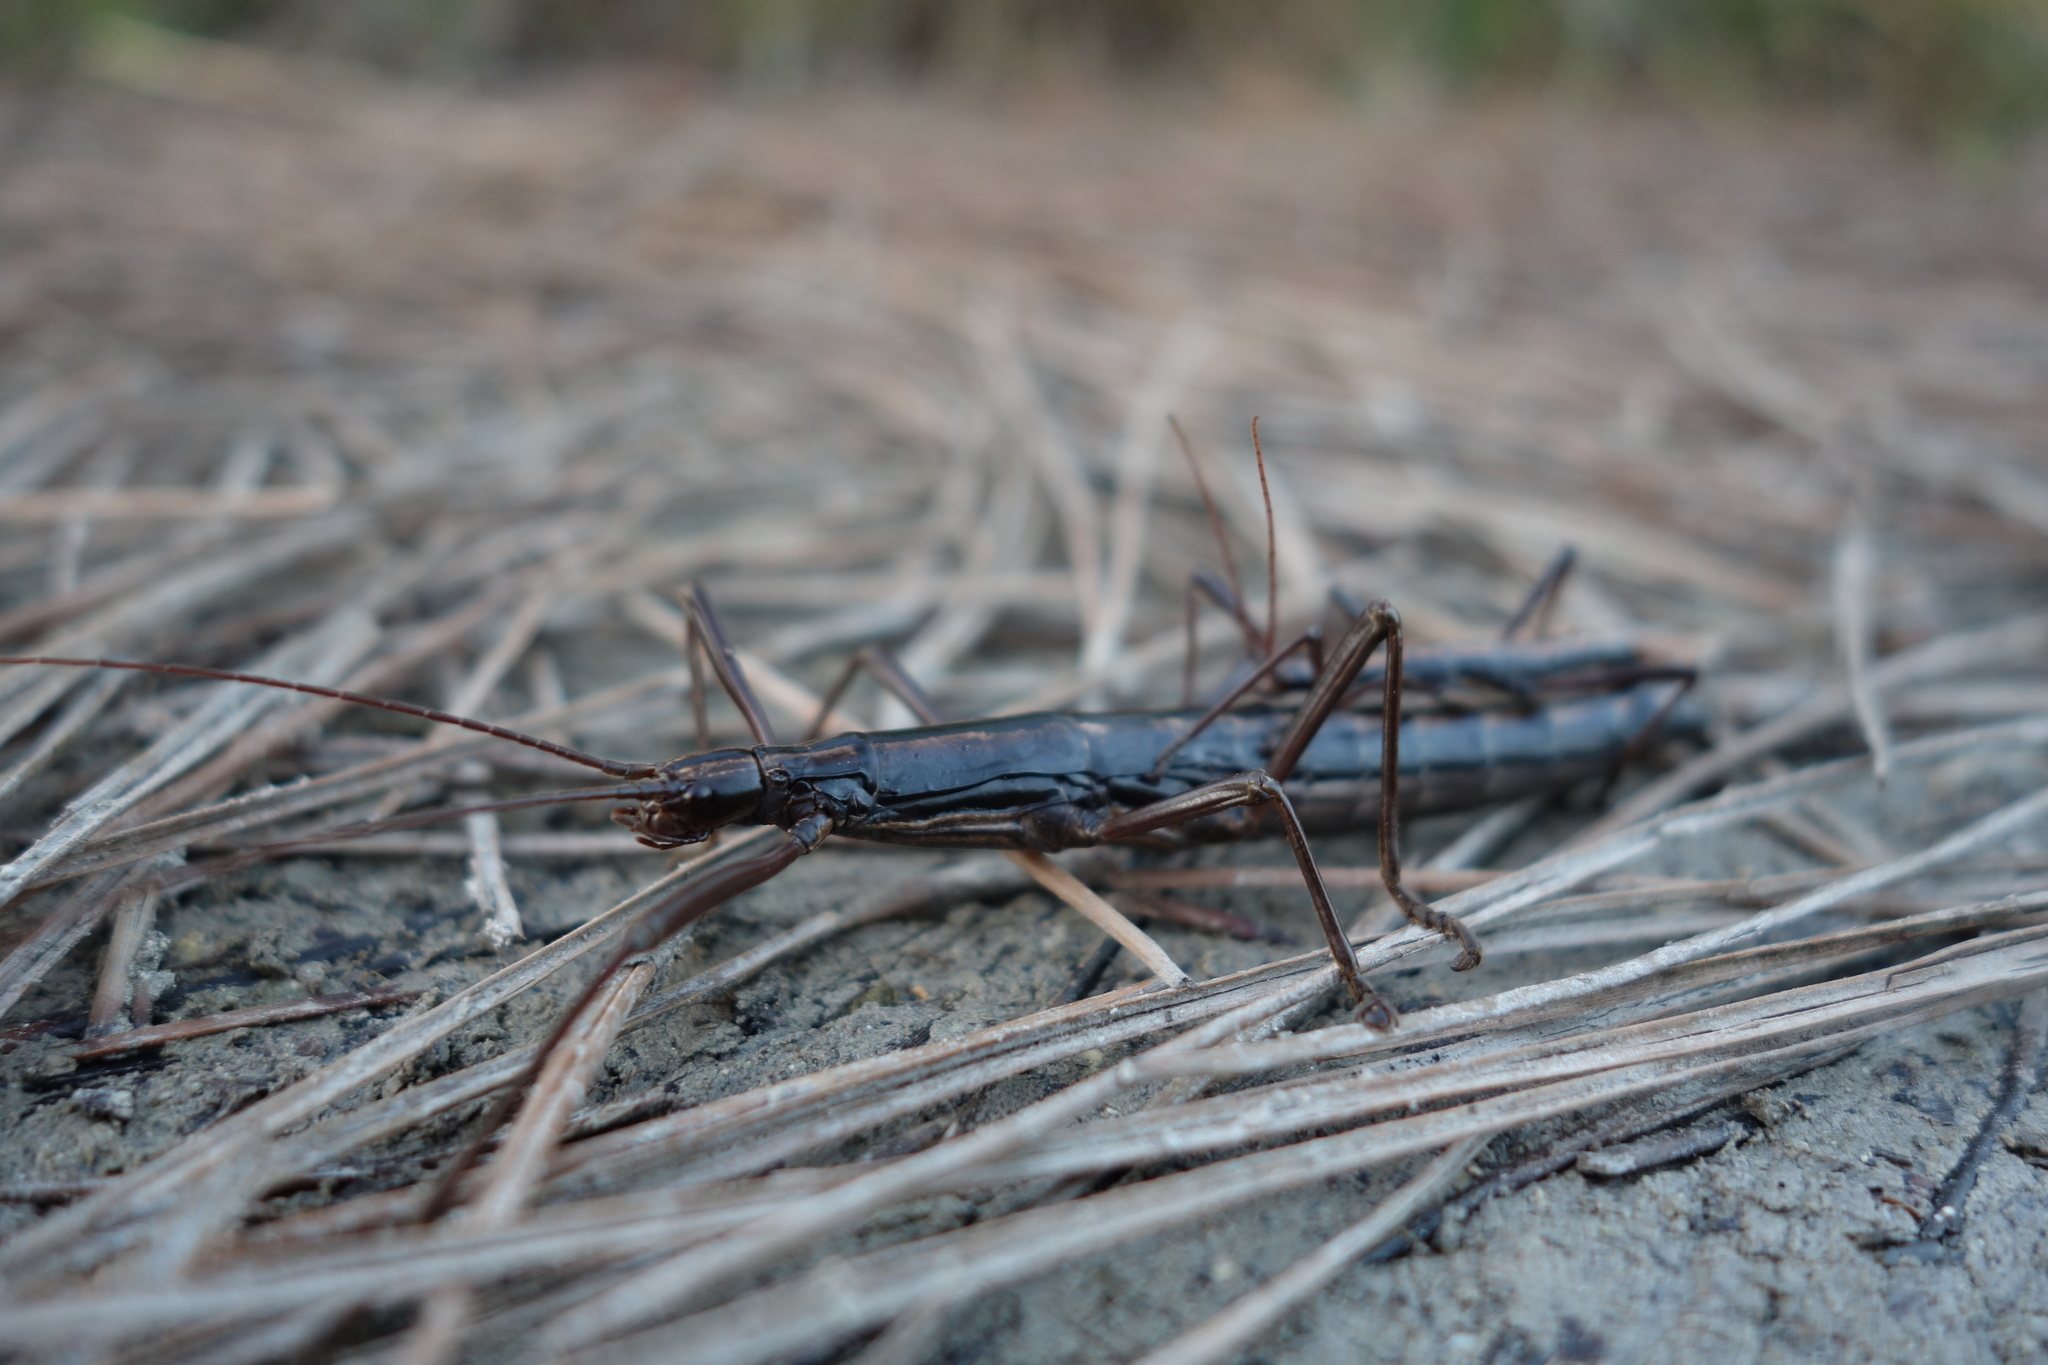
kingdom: Animalia
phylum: Arthropoda
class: Insecta
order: Phasmida
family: Pseudophasmatidae
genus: Anisomorpha
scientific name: Anisomorpha buprestoides
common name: Florida stick insect
